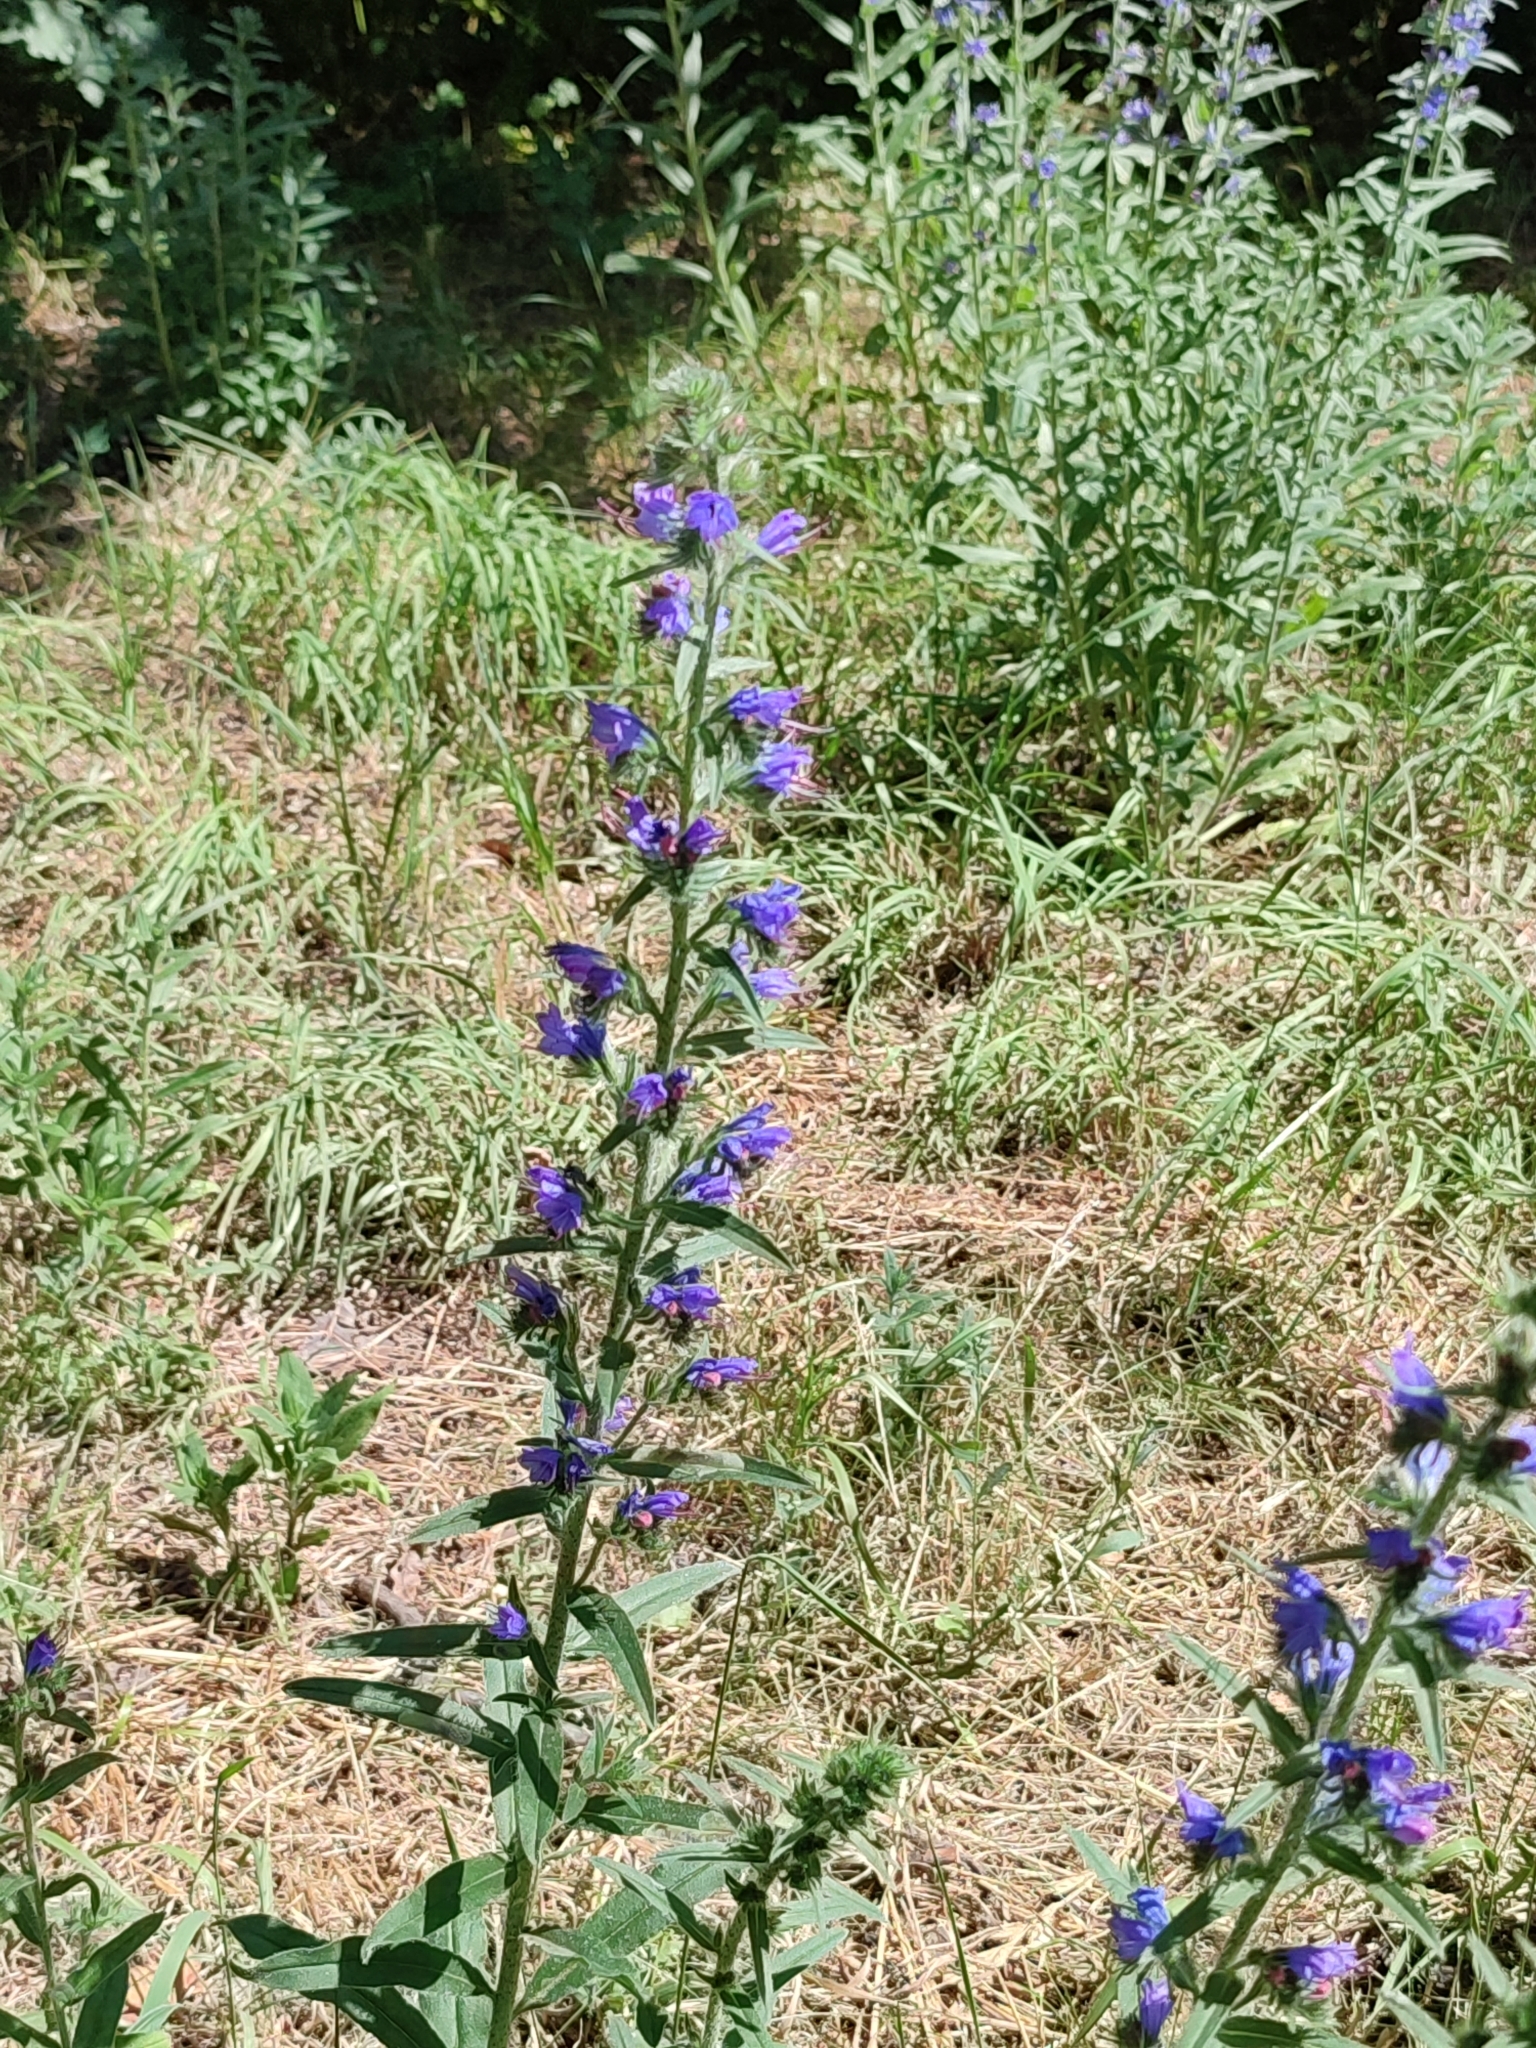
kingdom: Plantae
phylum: Tracheophyta
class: Magnoliopsida
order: Boraginales
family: Boraginaceae
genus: Echium
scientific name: Echium vulgare
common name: Common viper's bugloss
